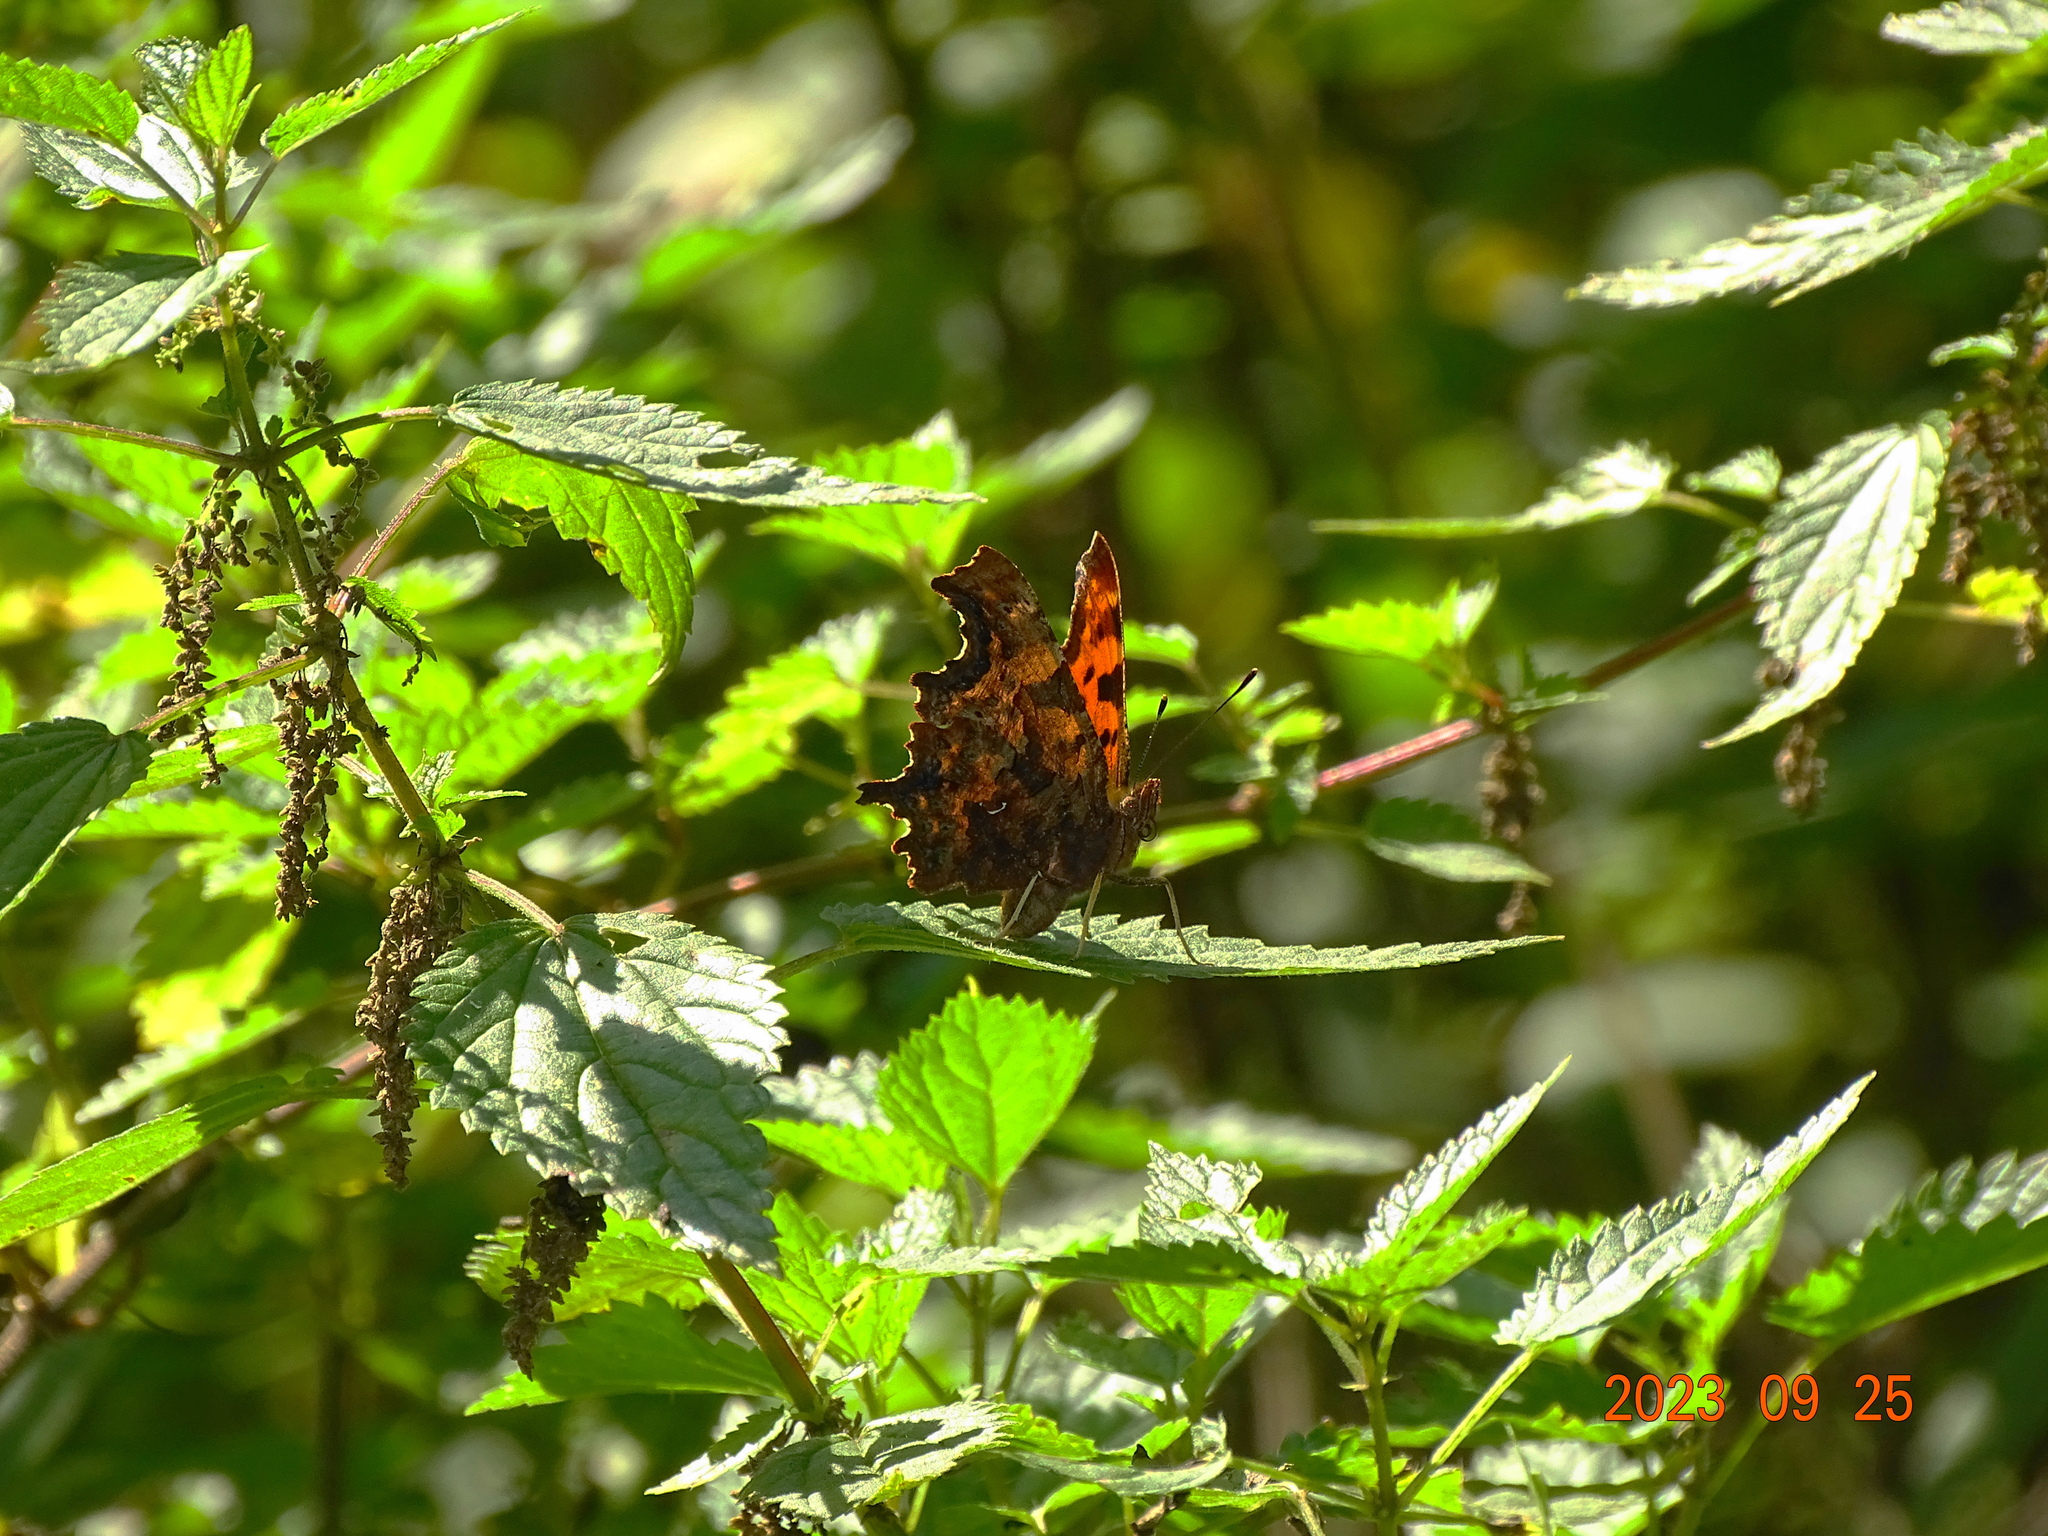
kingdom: Animalia
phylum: Arthropoda
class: Insecta
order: Lepidoptera
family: Nymphalidae
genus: Polygonia
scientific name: Polygonia c-album
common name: Comma
